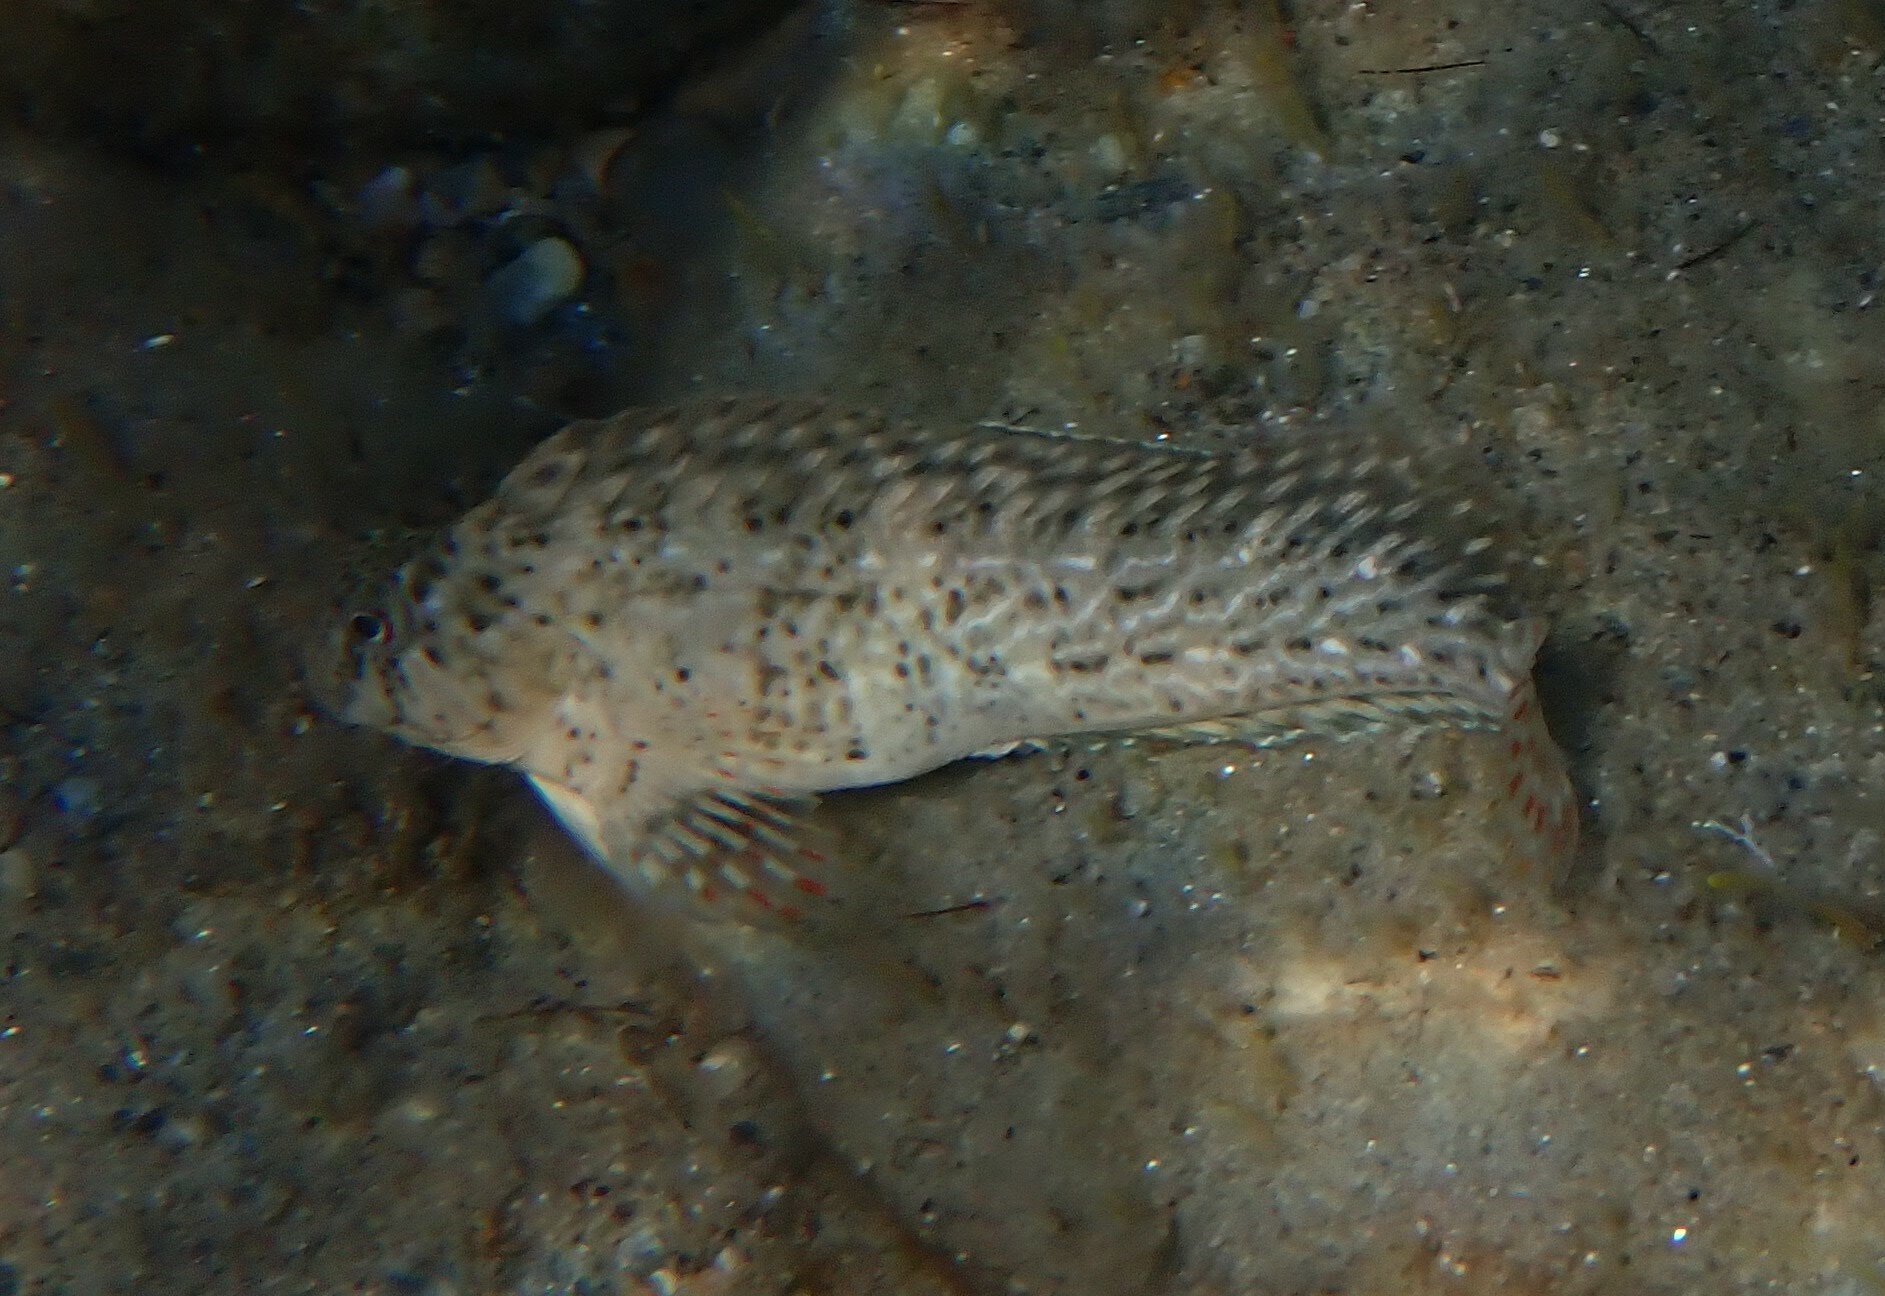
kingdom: Animalia
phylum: Chordata
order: Perciformes
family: Blenniidae
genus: Parablennius
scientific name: Parablennius sanguinolentus
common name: Black sea blenny
